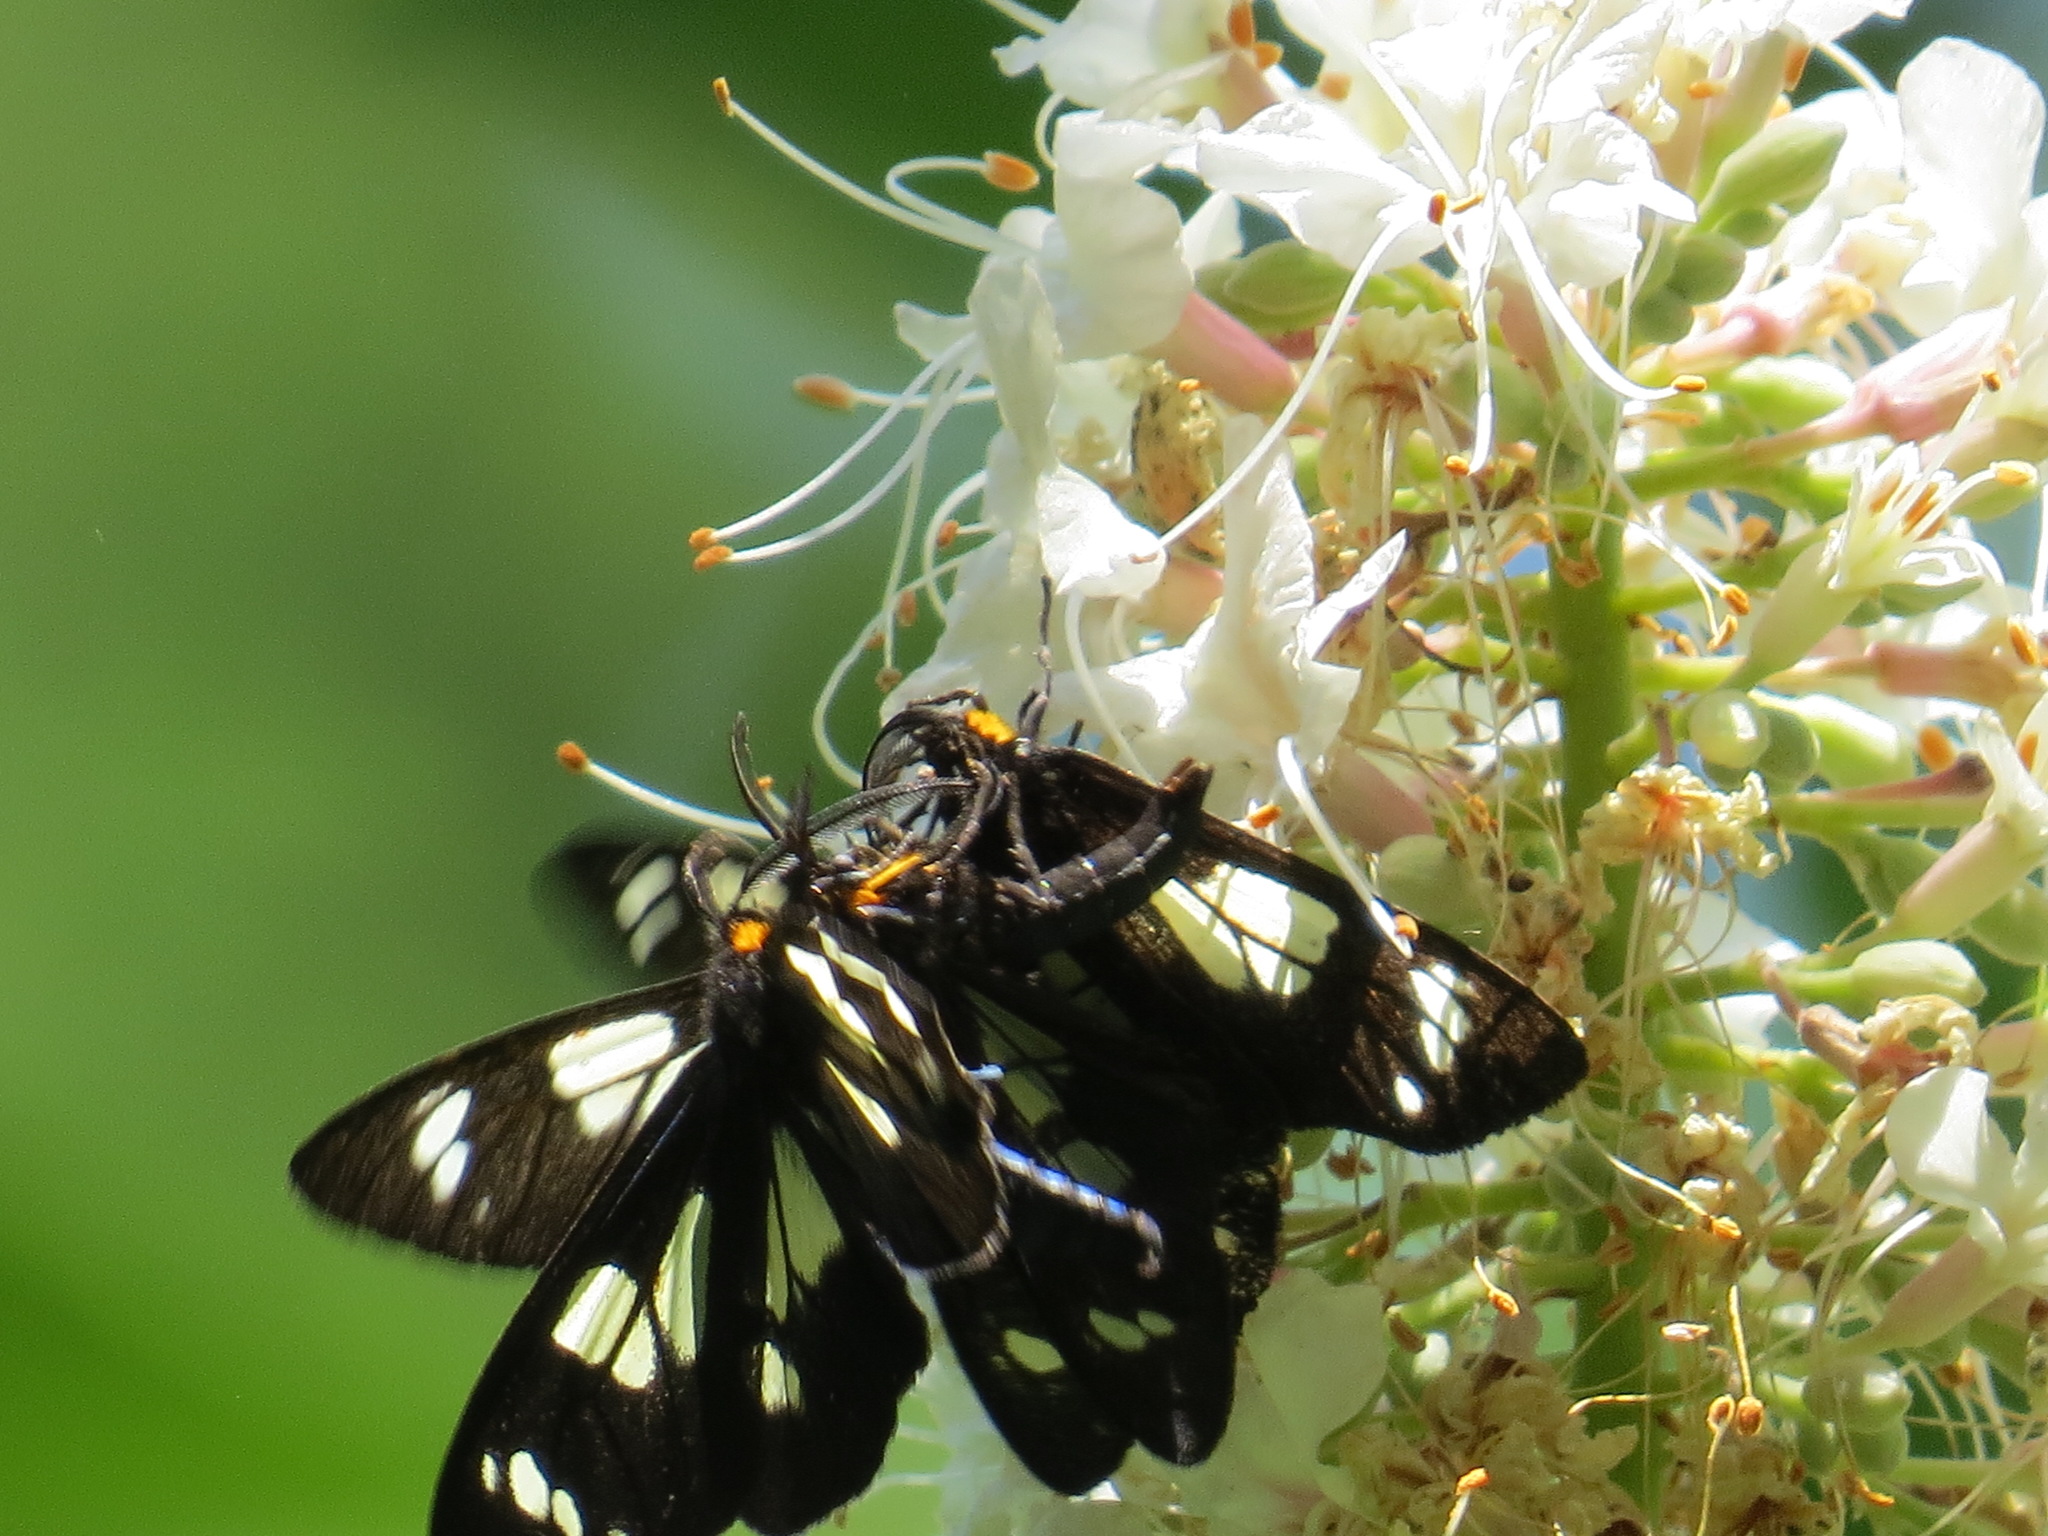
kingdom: Animalia
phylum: Arthropoda
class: Insecta
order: Lepidoptera
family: Erebidae
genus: Gnophaela
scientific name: Gnophaela latipennis
